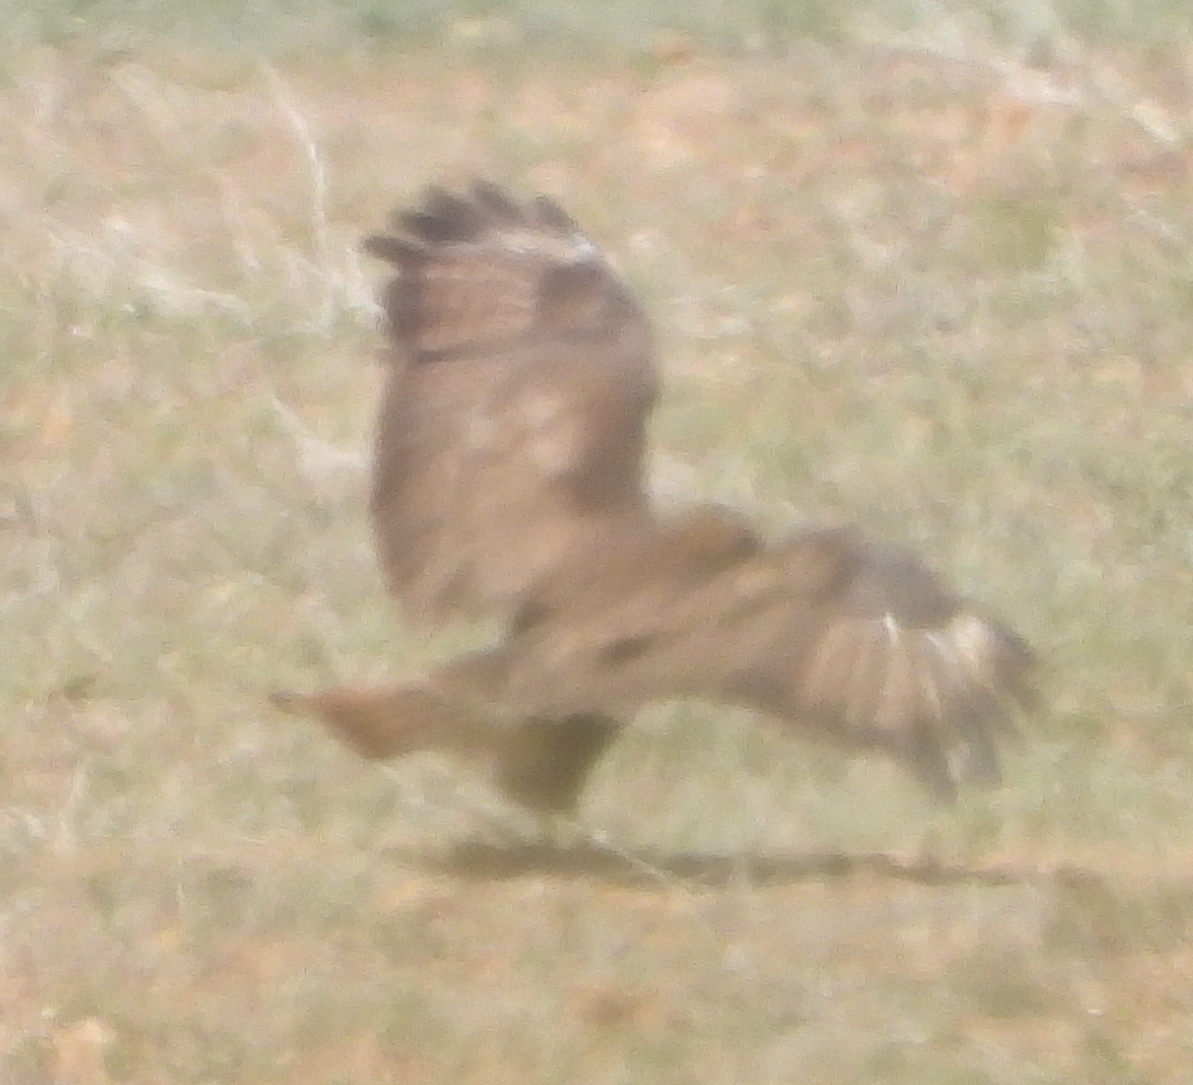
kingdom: Animalia
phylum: Chordata
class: Aves
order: Accipitriformes
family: Accipitridae
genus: Buteo
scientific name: Buteo buteo
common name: Common buzzard
